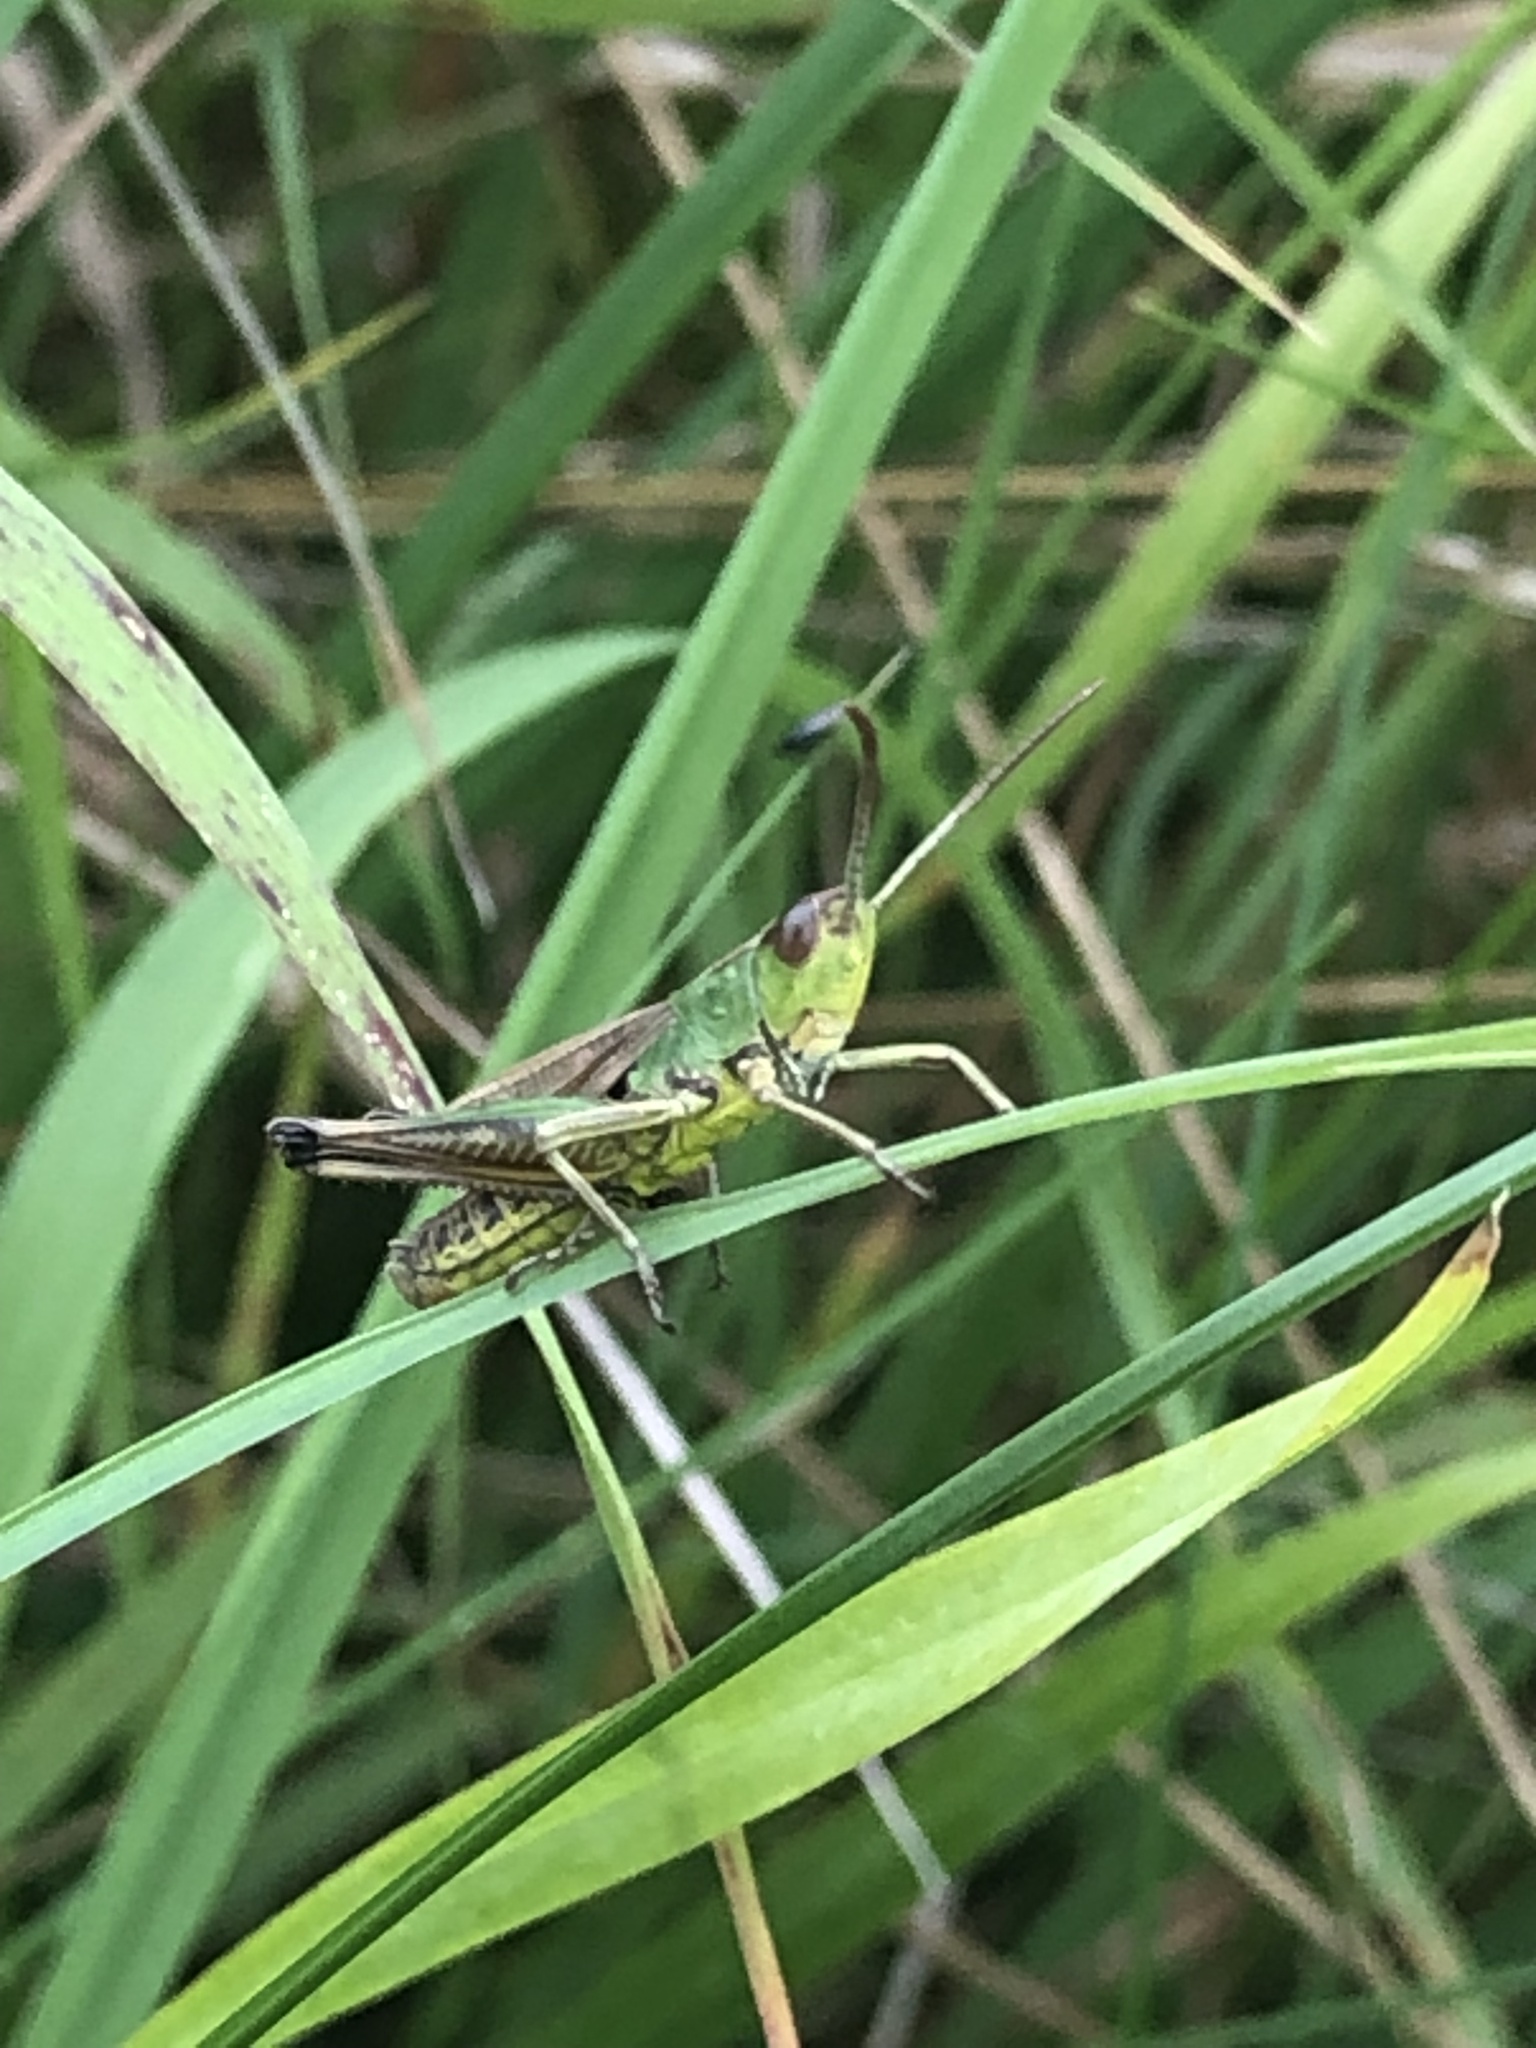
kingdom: Animalia
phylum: Arthropoda
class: Insecta
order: Orthoptera
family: Acrididae
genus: Pseudochorthippus
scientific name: Pseudochorthippus parallelus
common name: Meadow grasshopper
